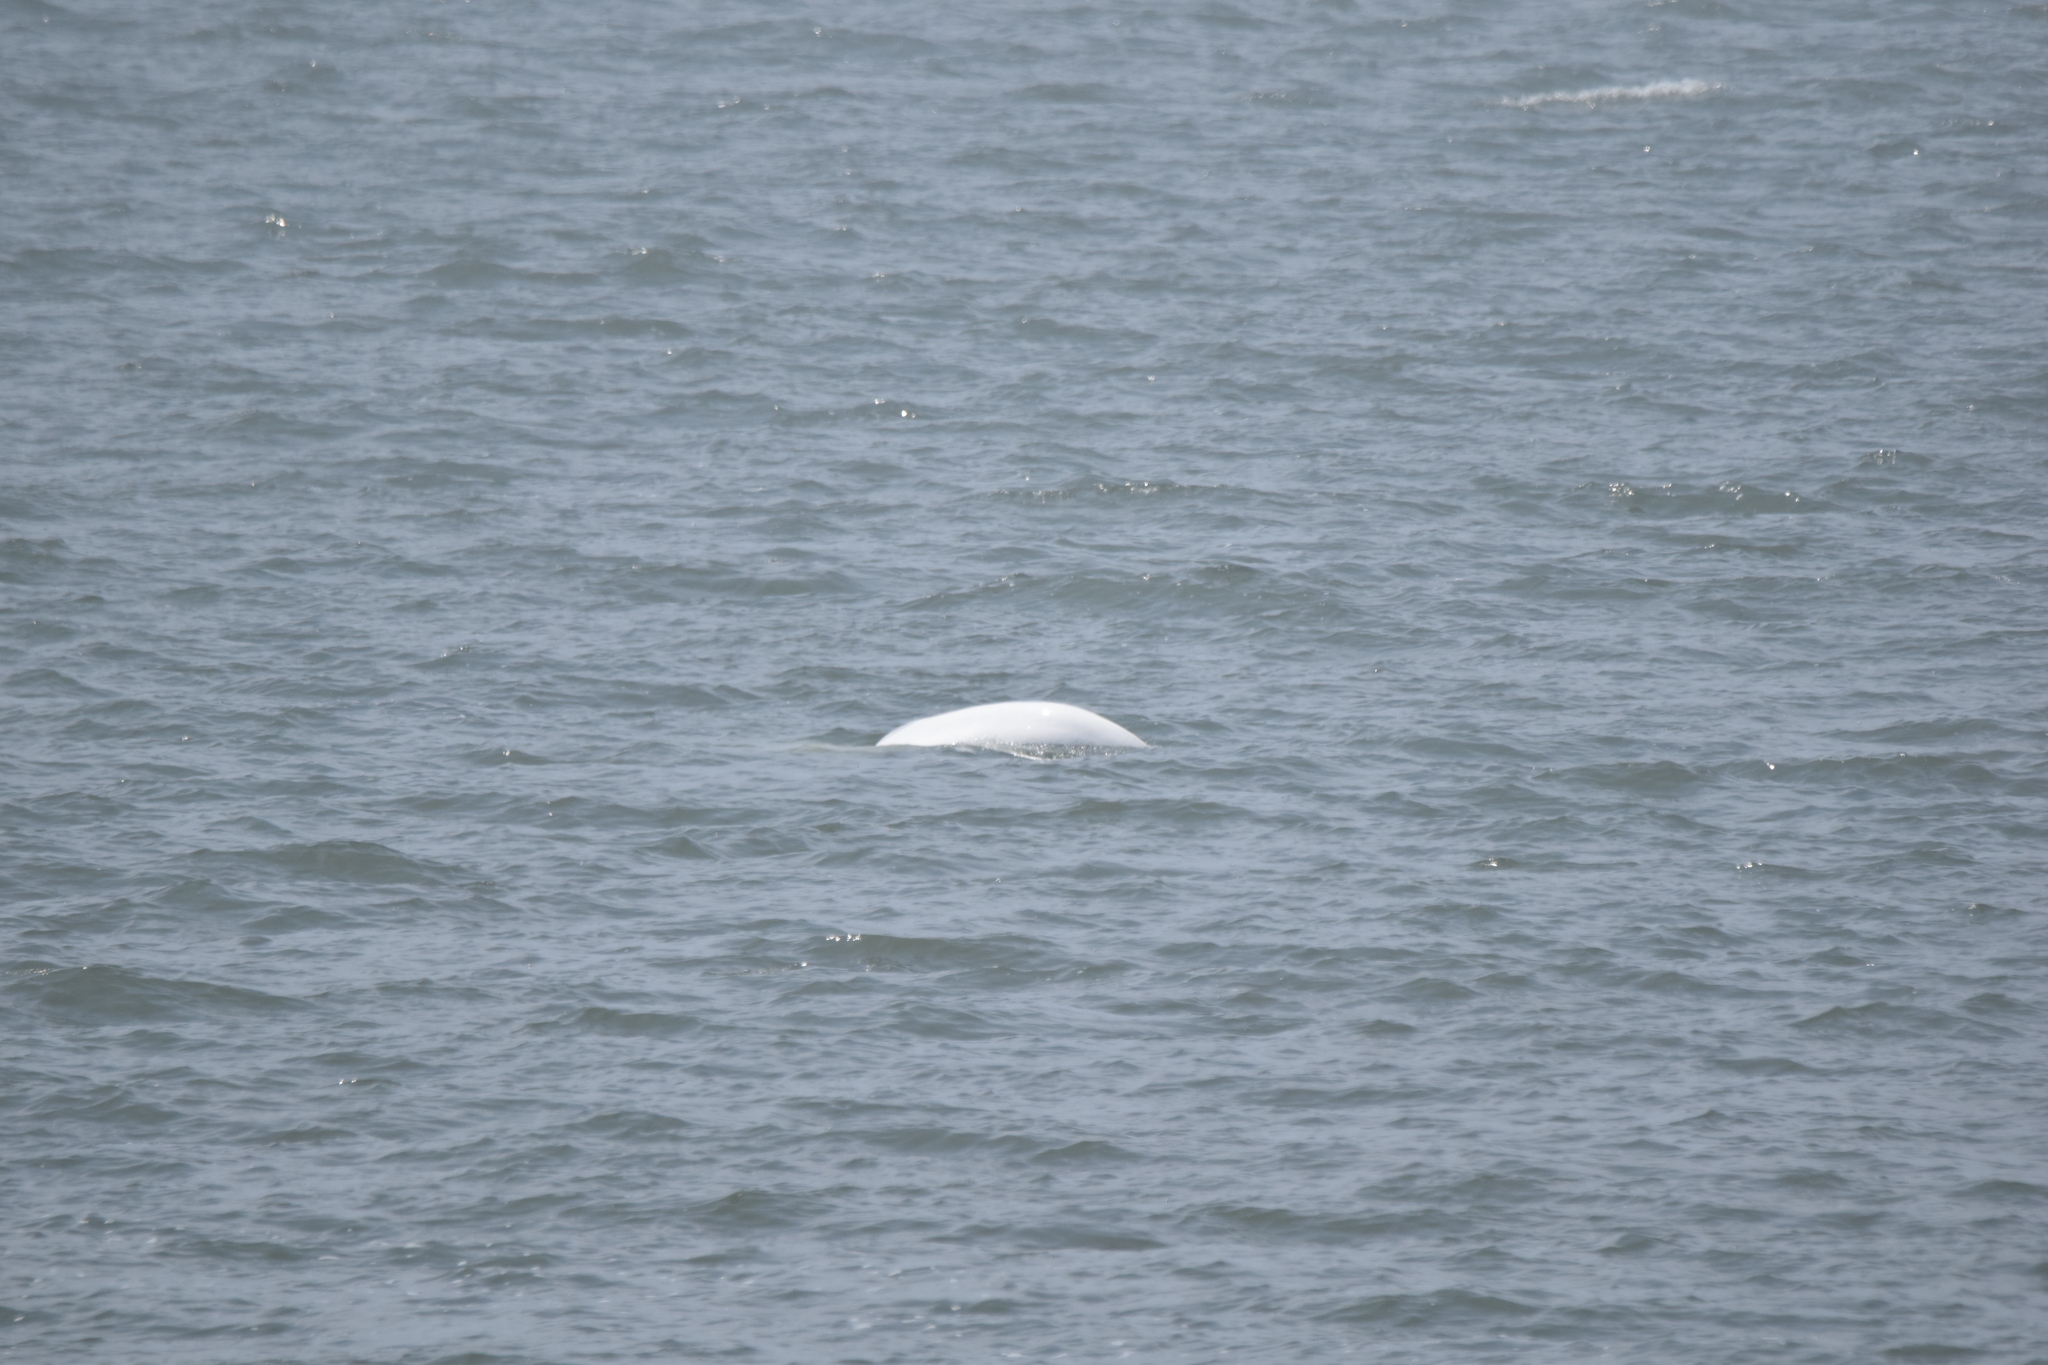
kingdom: Animalia
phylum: Chordata
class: Mammalia
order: Cetacea
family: Monodontidae
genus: Delphinapterus
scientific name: Delphinapterus leucas
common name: Beluga
